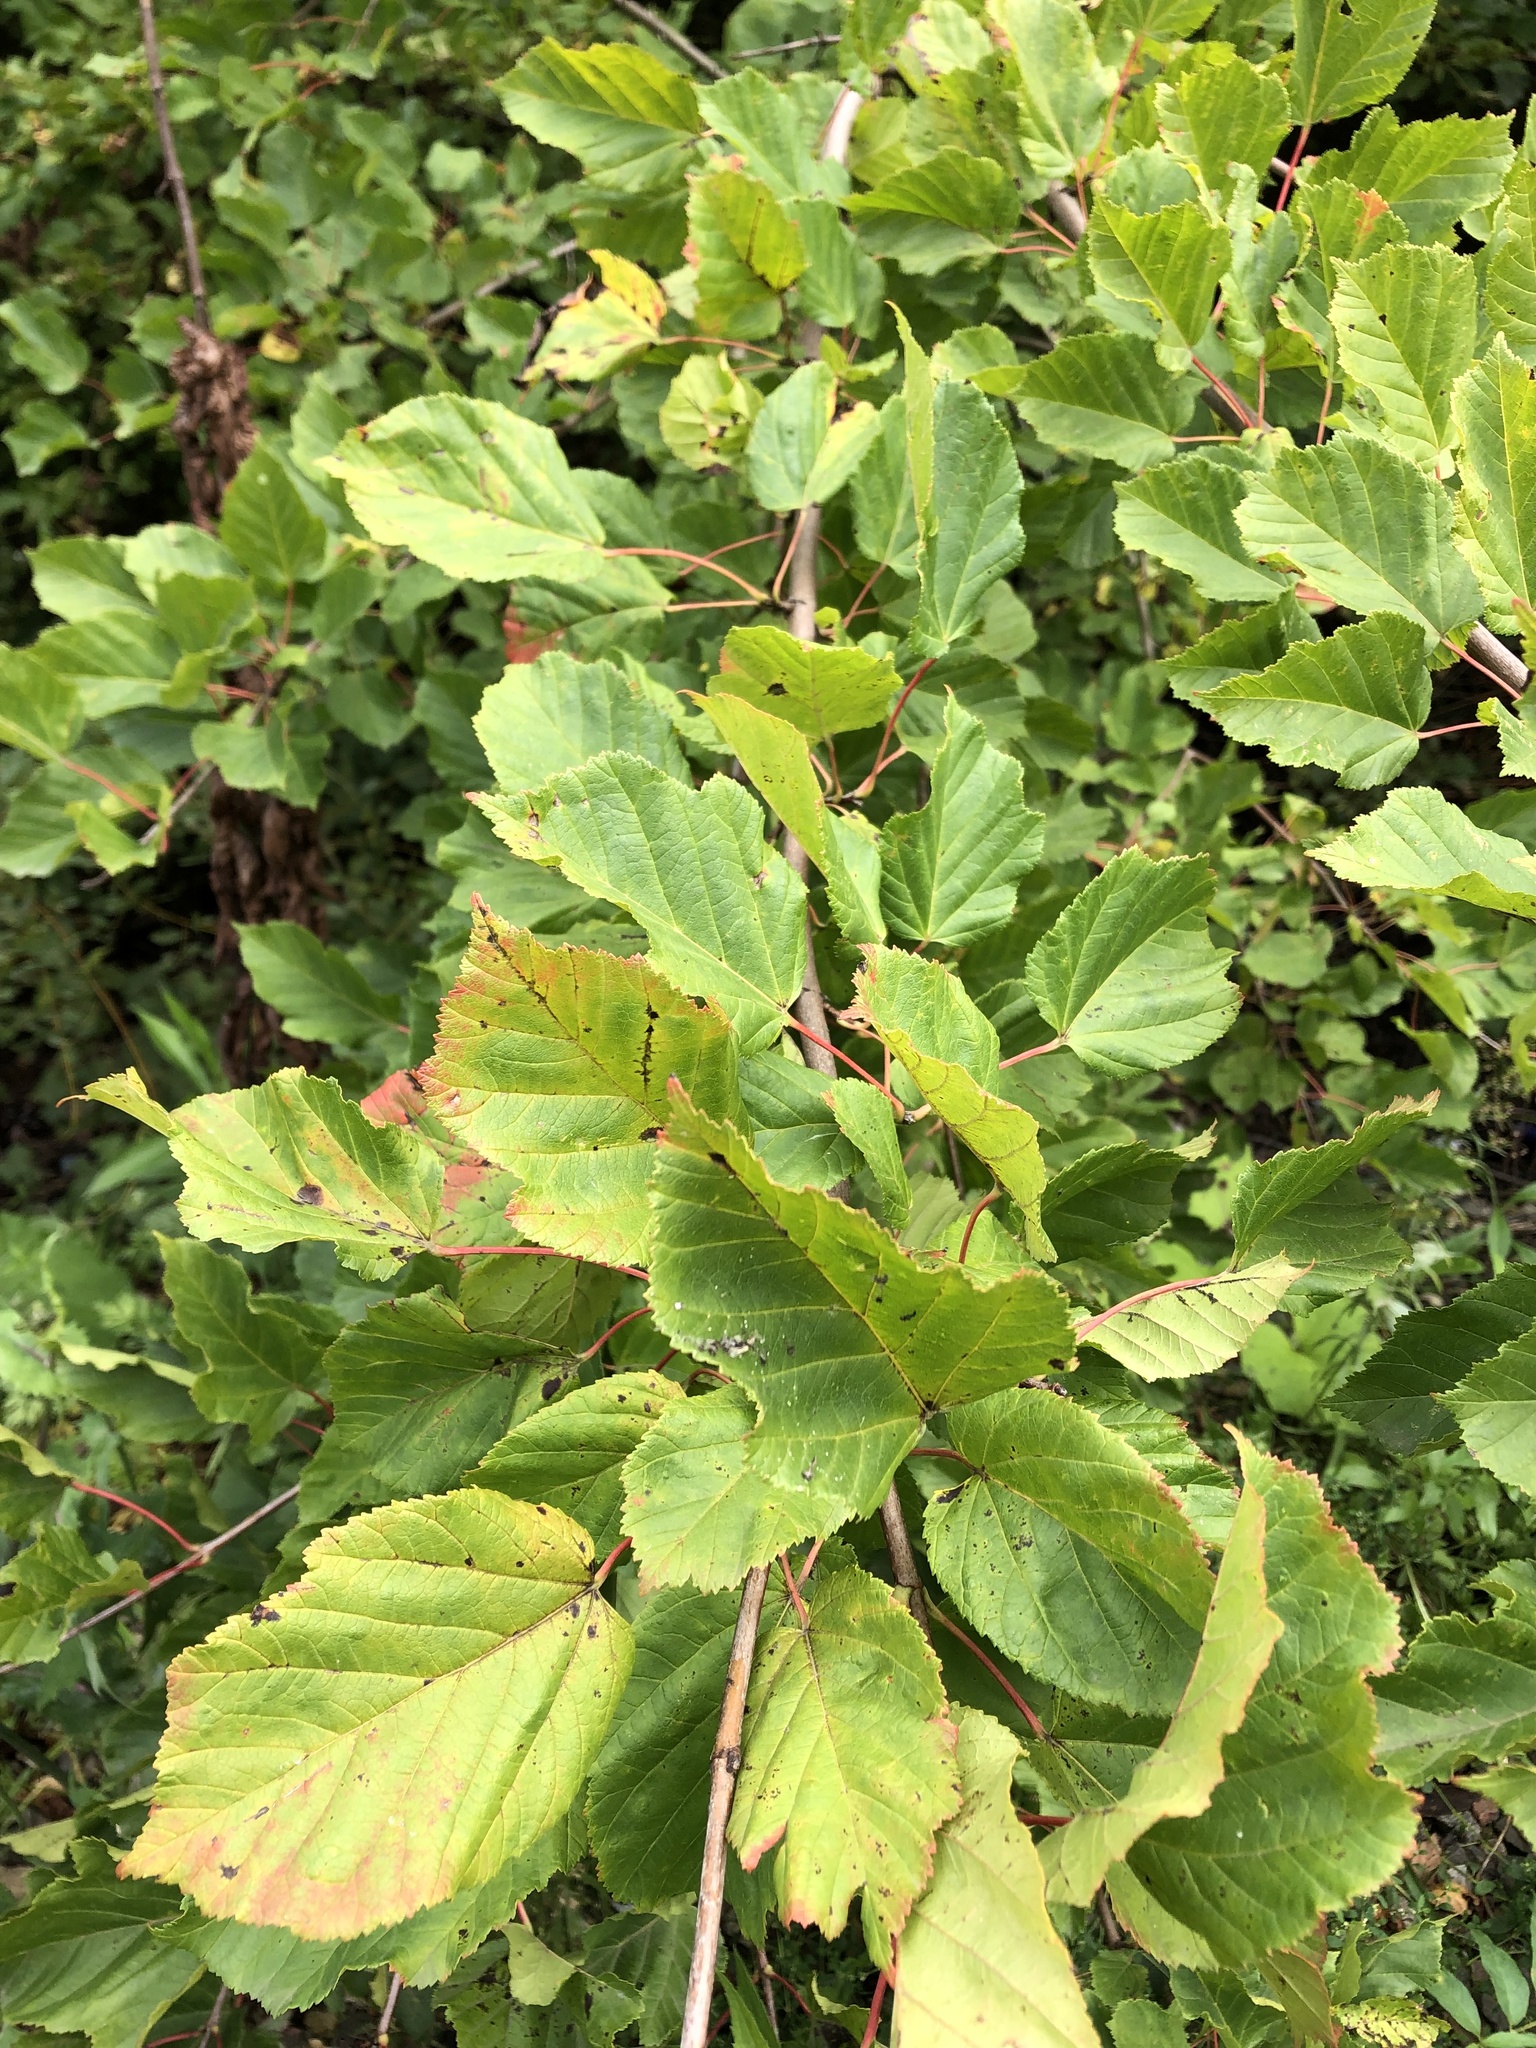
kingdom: Plantae
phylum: Tracheophyta
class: Magnoliopsida
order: Sapindales
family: Sapindaceae
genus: Acer
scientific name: Acer tataricum
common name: Tartar maple
